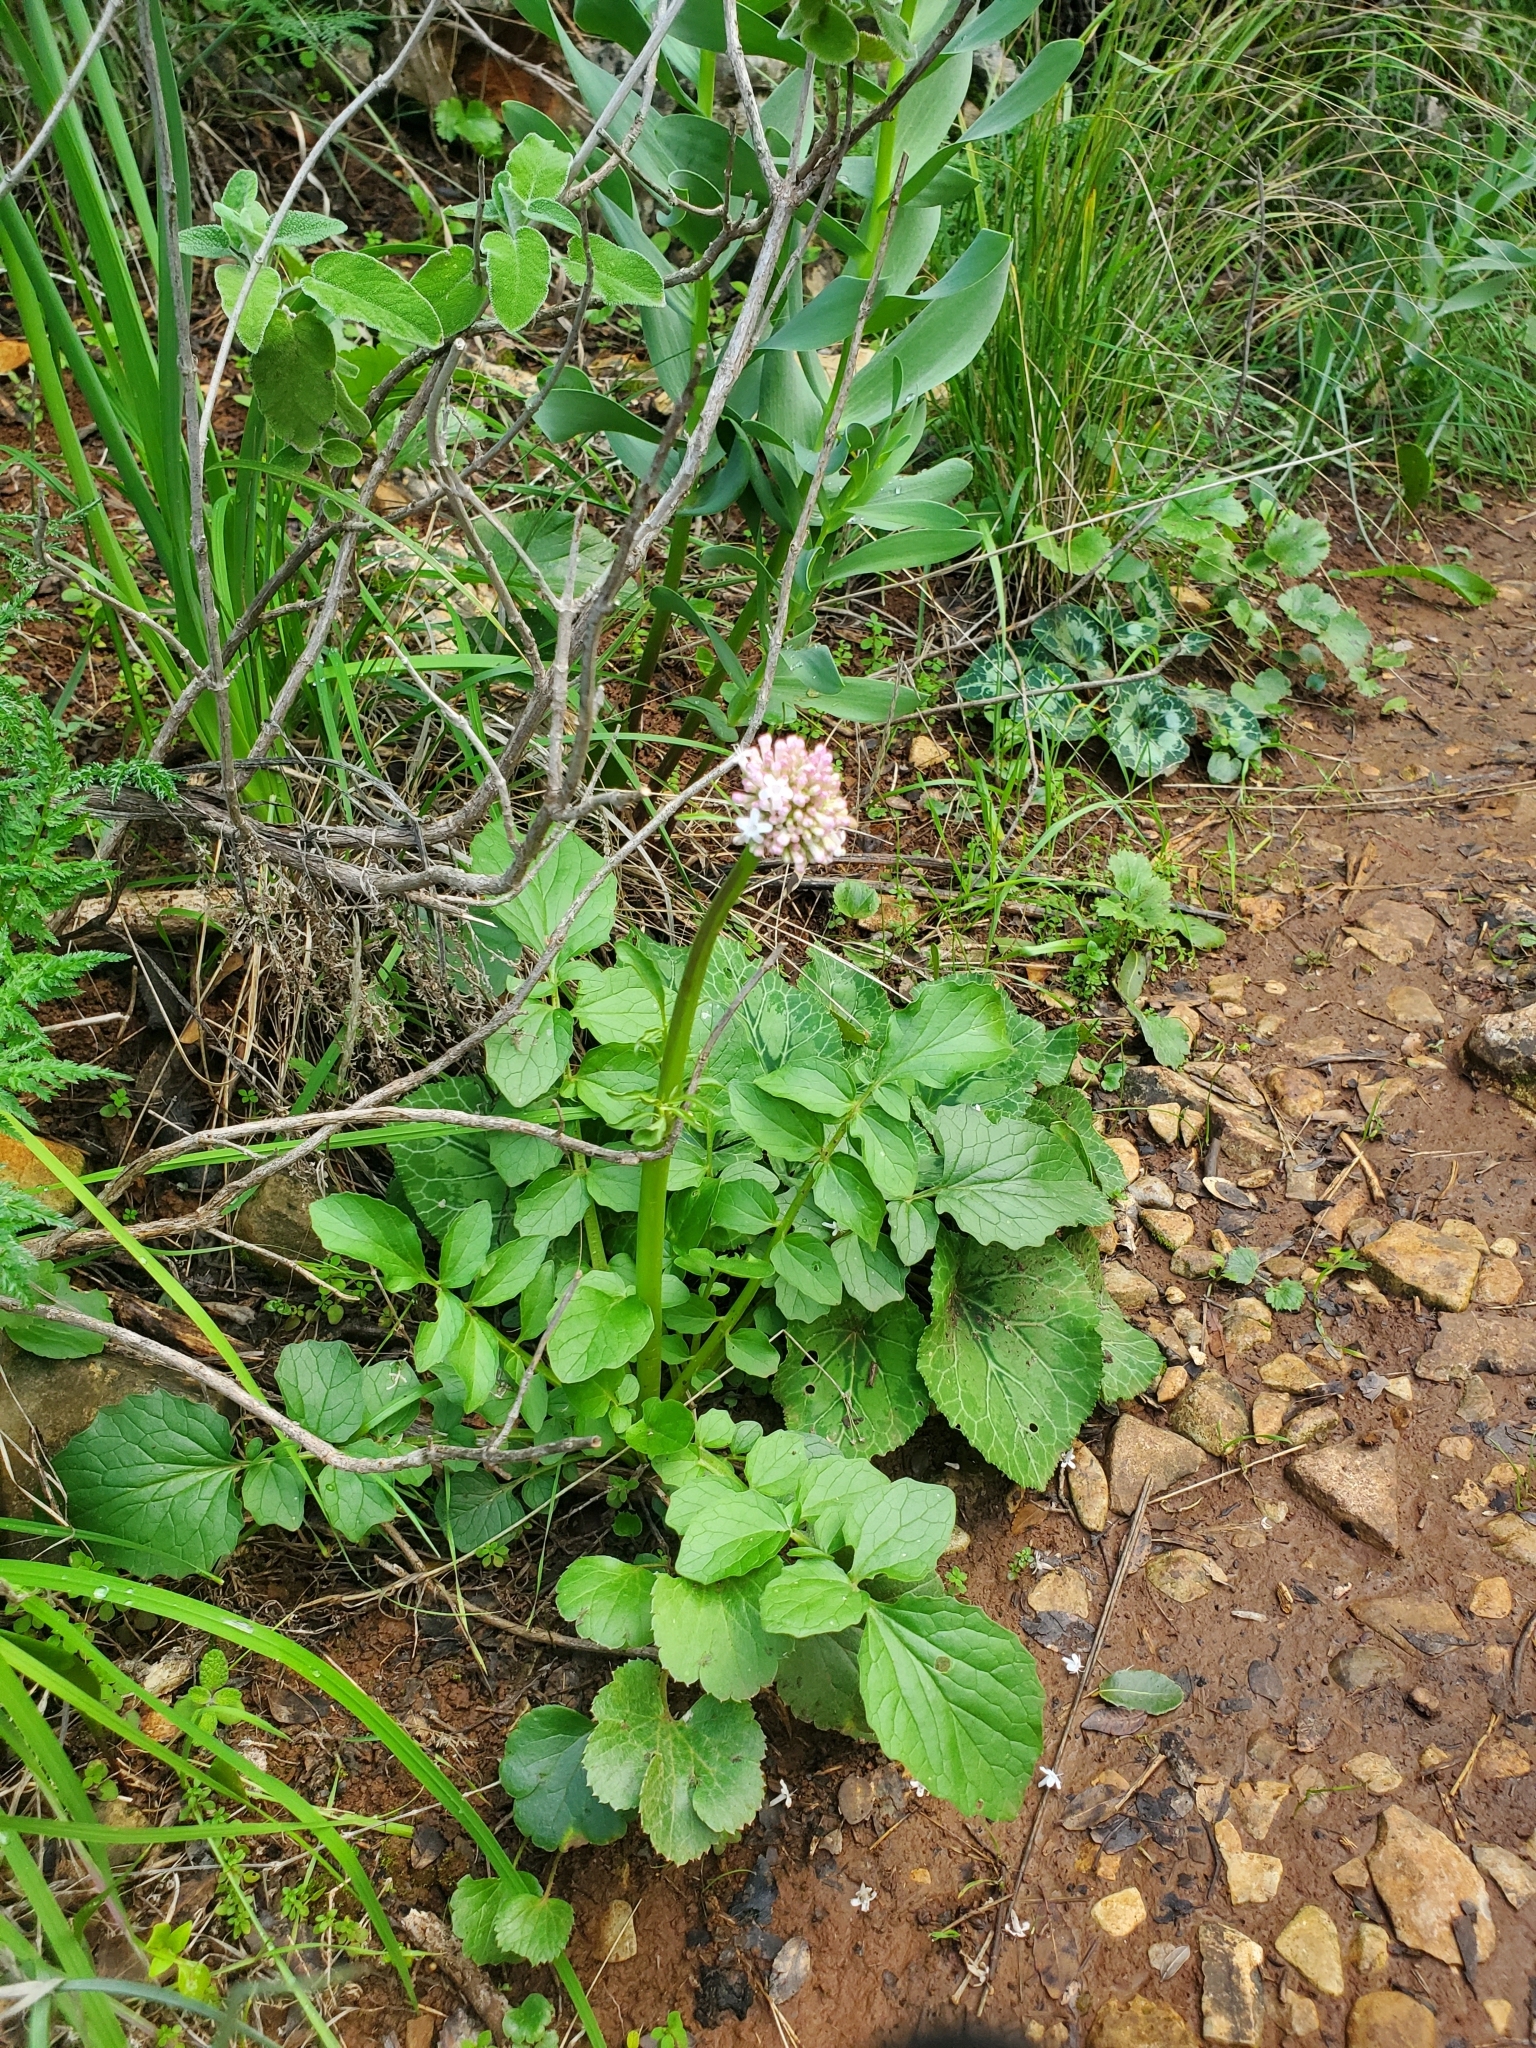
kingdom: Plantae
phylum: Tracheophyta
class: Magnoliopsida
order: Dipsacales
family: Caprifoliaceae
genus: Valeriana
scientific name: Valeriana dioscoridis
